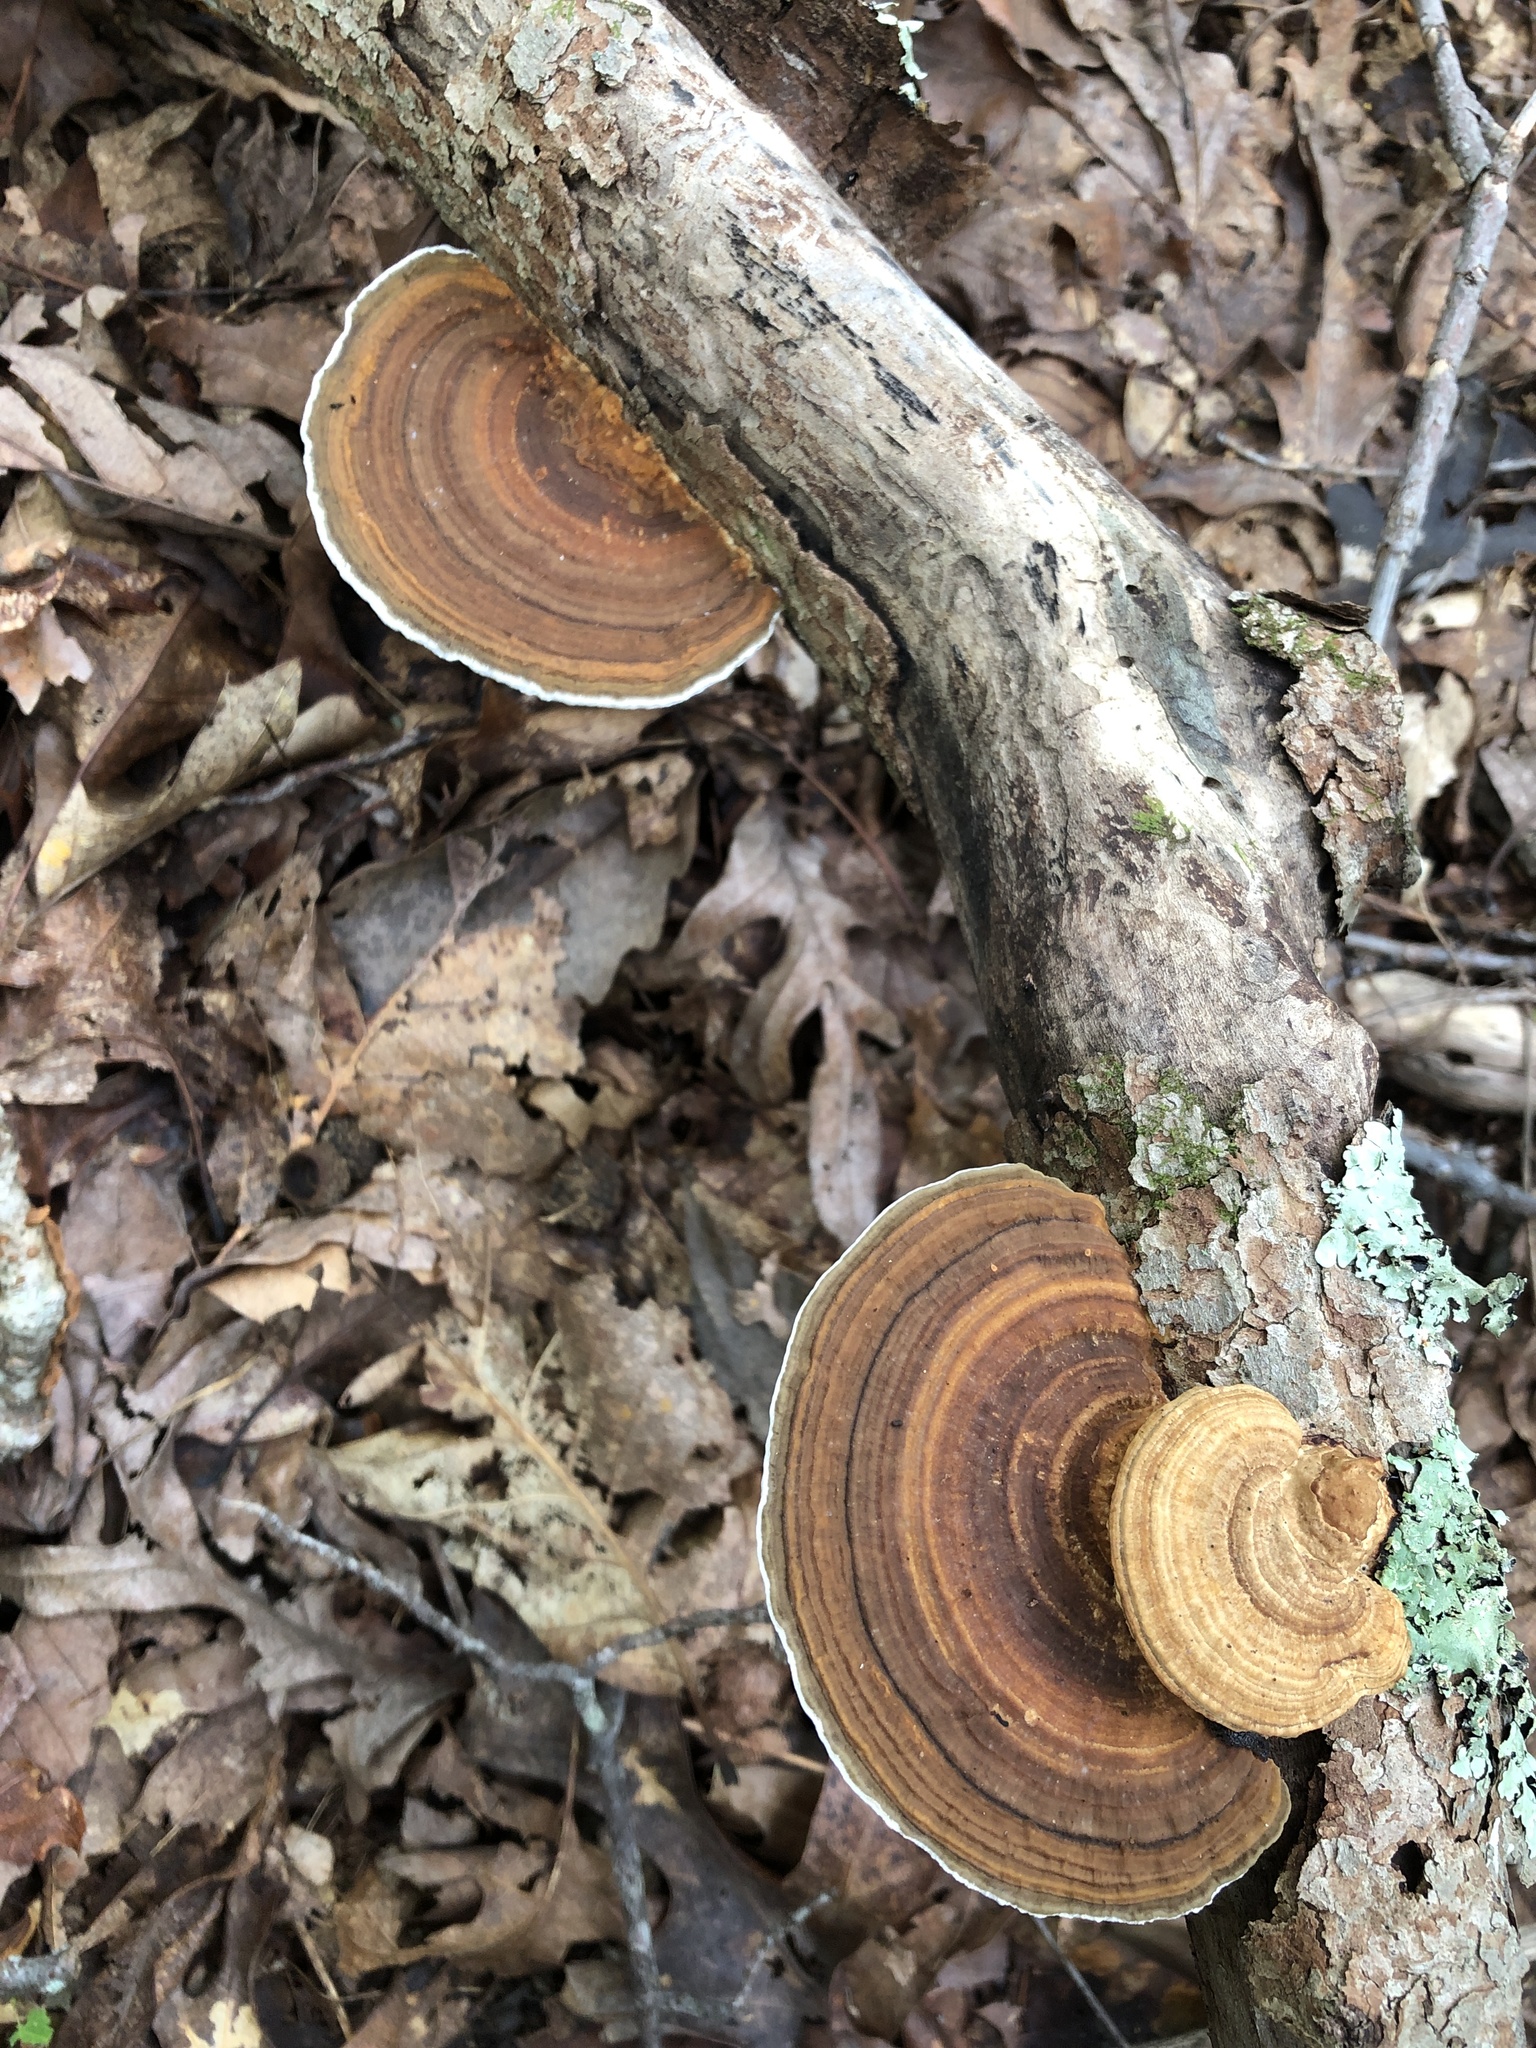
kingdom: Fungi
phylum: Basidiomycota
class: Agaricomycetes
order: Polyporales
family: Polyporaceae
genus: Daedaleopsis
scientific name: Daedaleopsis confragosa
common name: Blushing bracket
